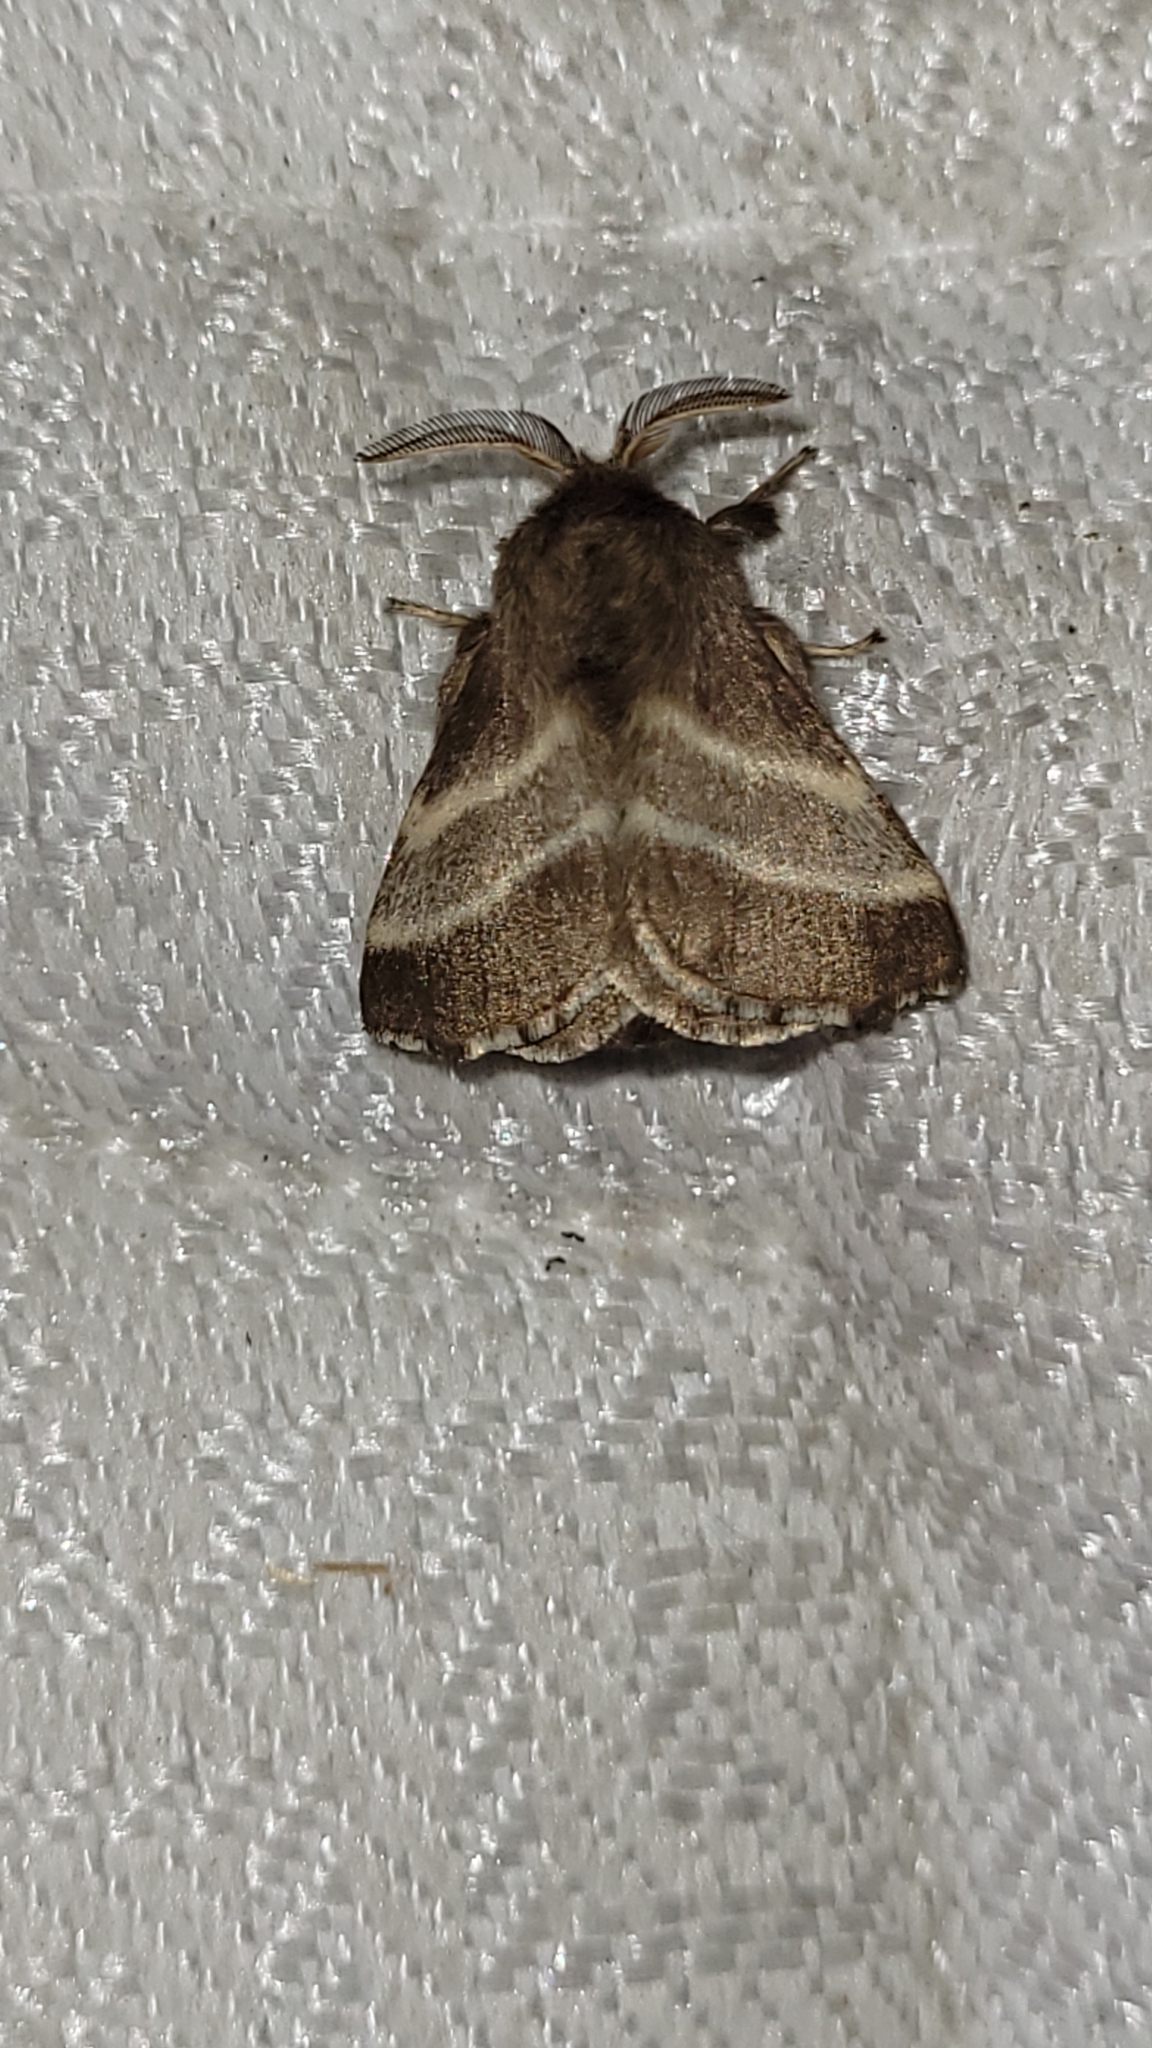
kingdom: Animalia
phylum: Arthropoda
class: Insecta
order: Lepidoptera
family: Lasiocampidae
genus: Malacosoma
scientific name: Malacosoma americana
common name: Eastern tent caterpillar moth
